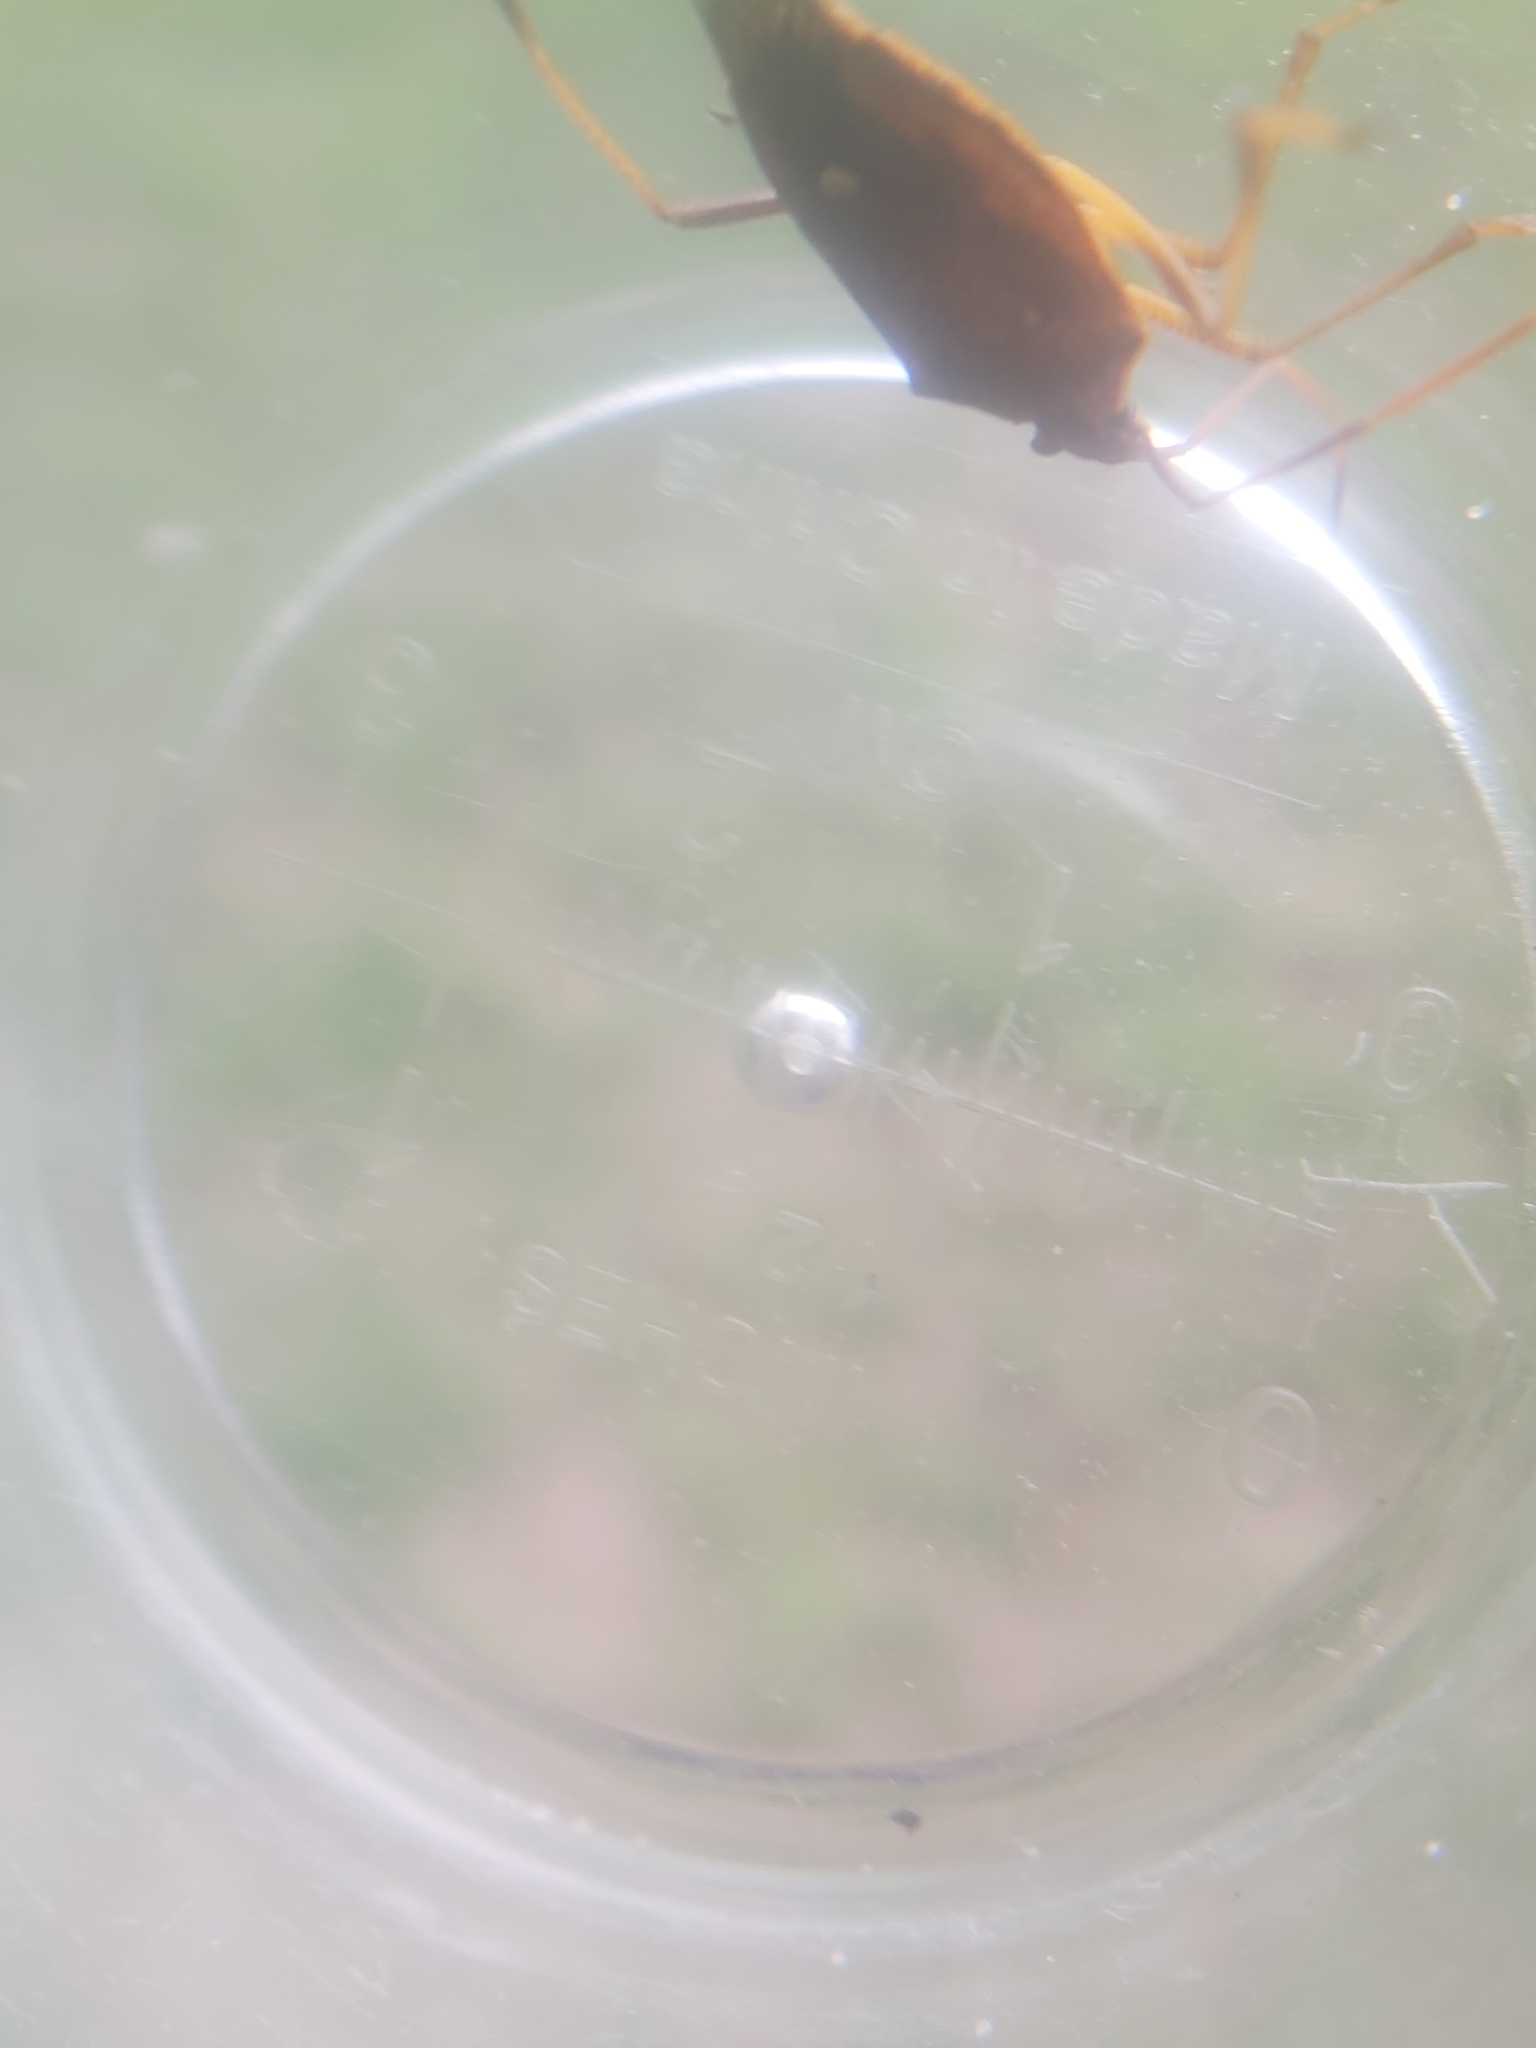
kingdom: Animalia
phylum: Arthropoda
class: Insecta
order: Hemiptera
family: Pentatomidae
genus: Poecilometis
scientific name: Poecilometis
